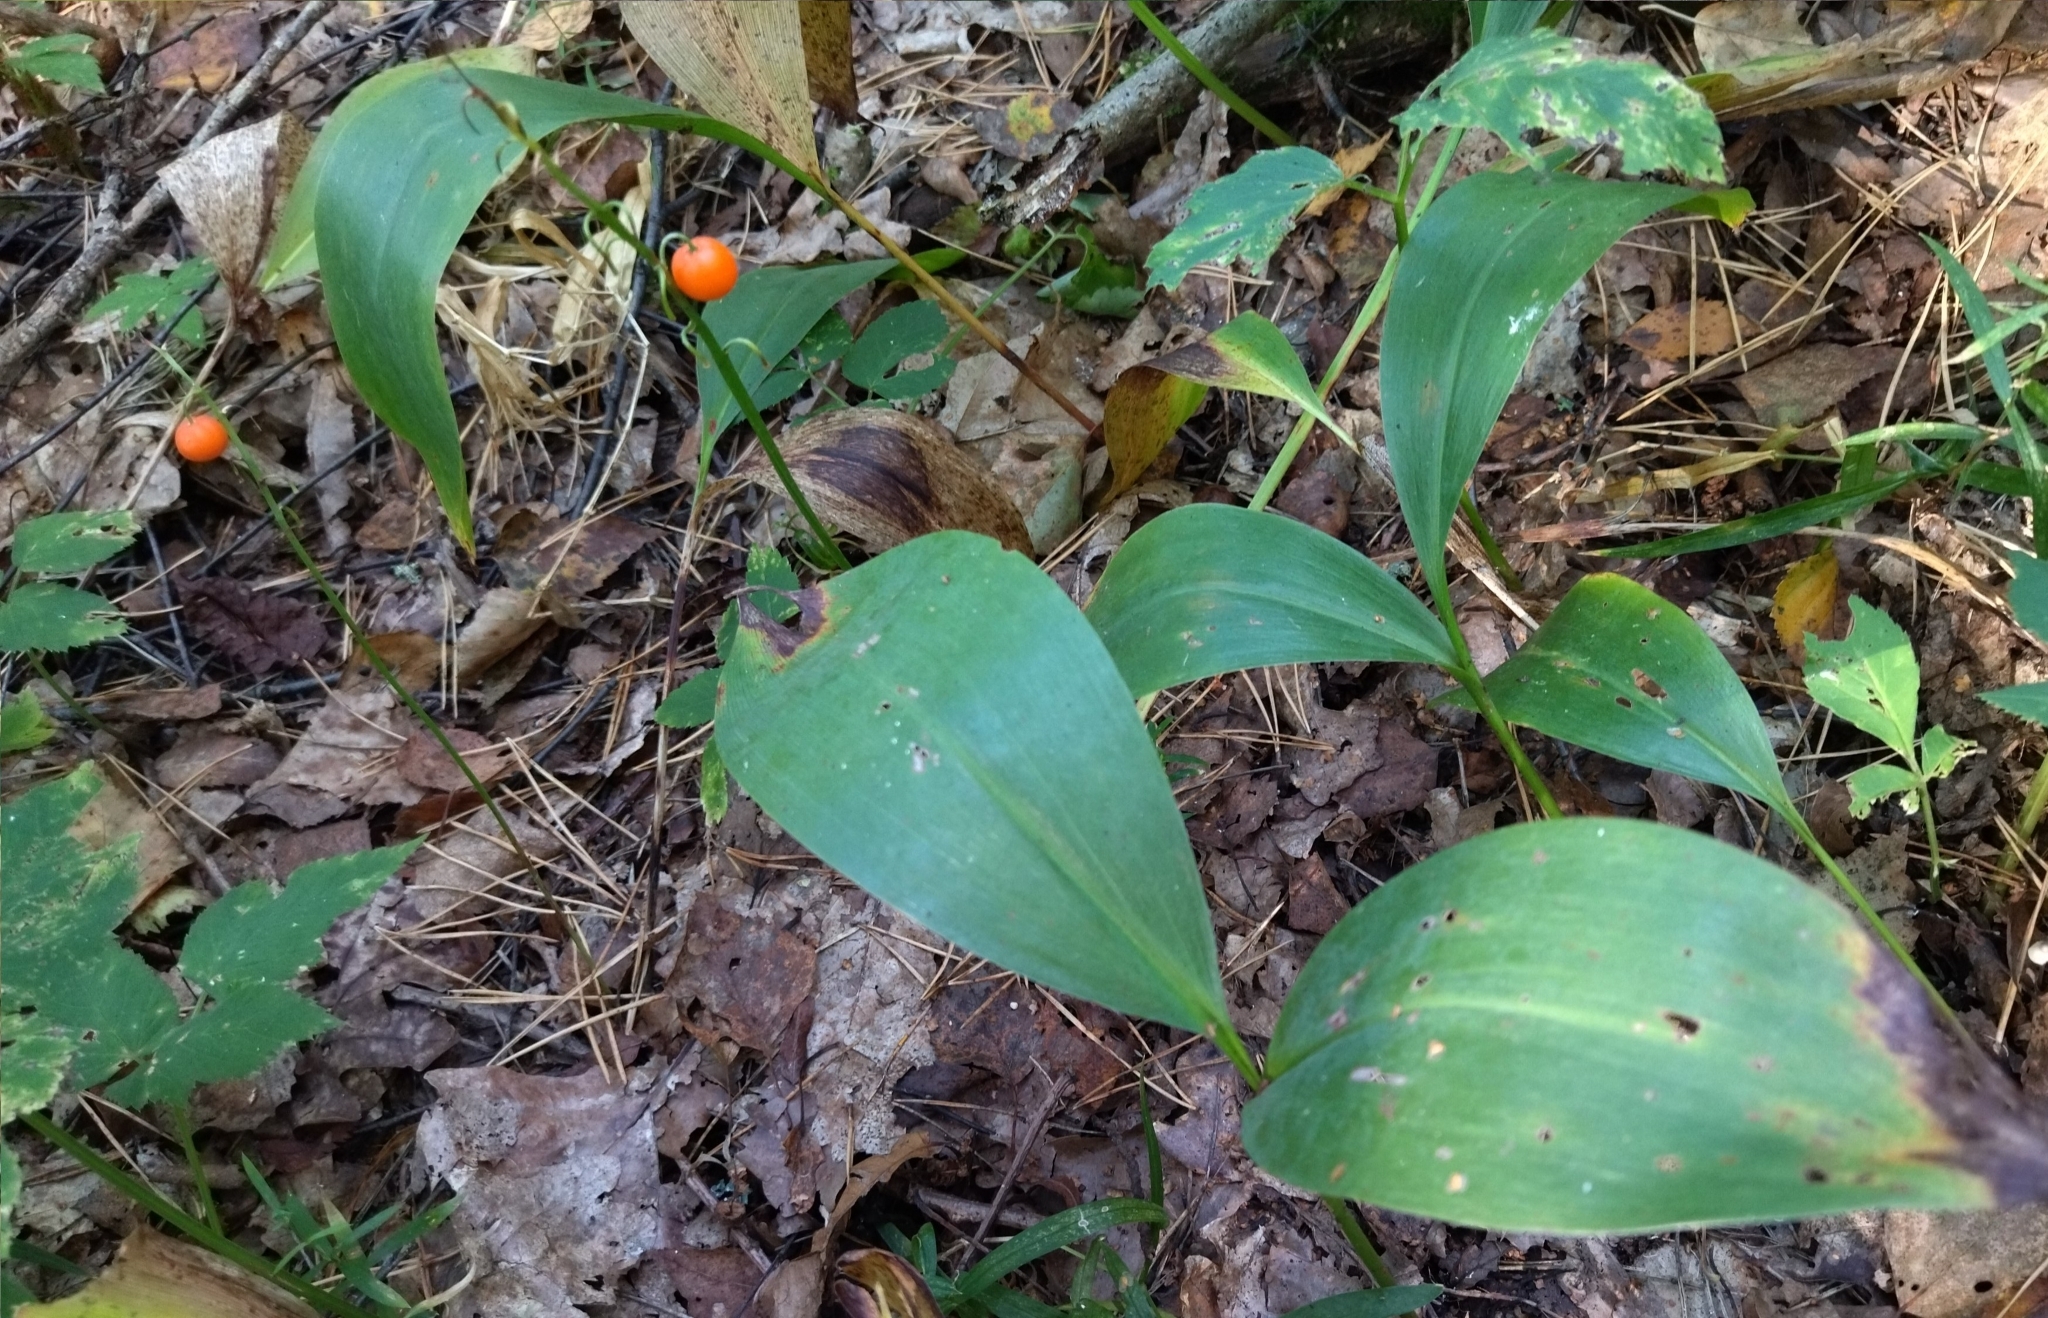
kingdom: Plantae
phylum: Tracheophyta
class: Liliopsida
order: Asparagales
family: Asparagaceae
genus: Convallaria
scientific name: Convallaria majalis
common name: Lily-of-the-valley
